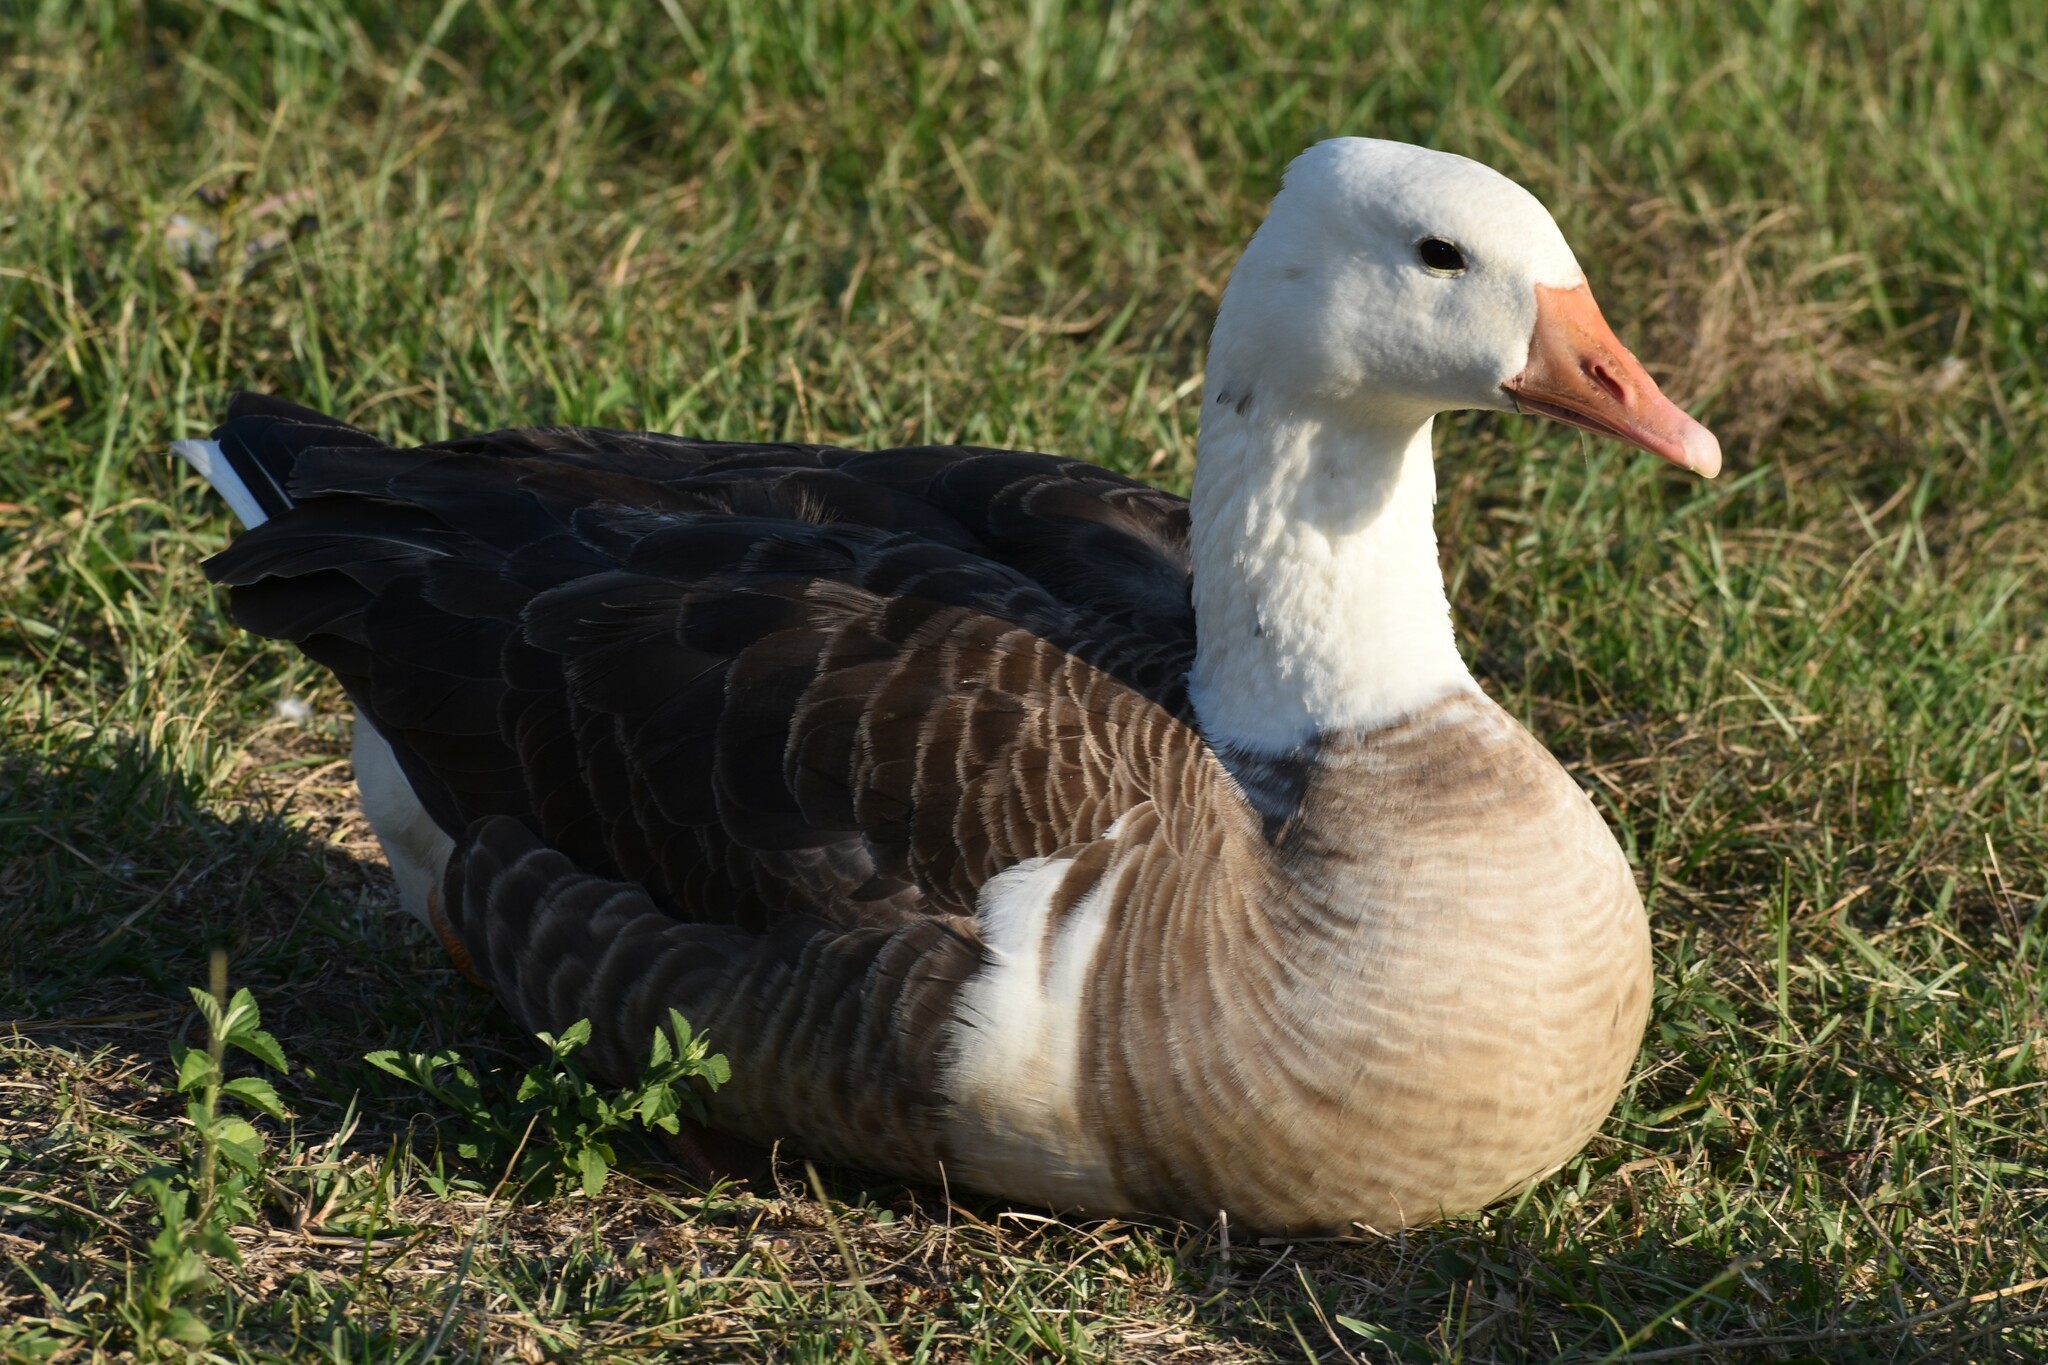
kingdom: Animalia
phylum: Chordata
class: Aves
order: Anseriformes
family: Anatidae
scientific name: Anatidae
